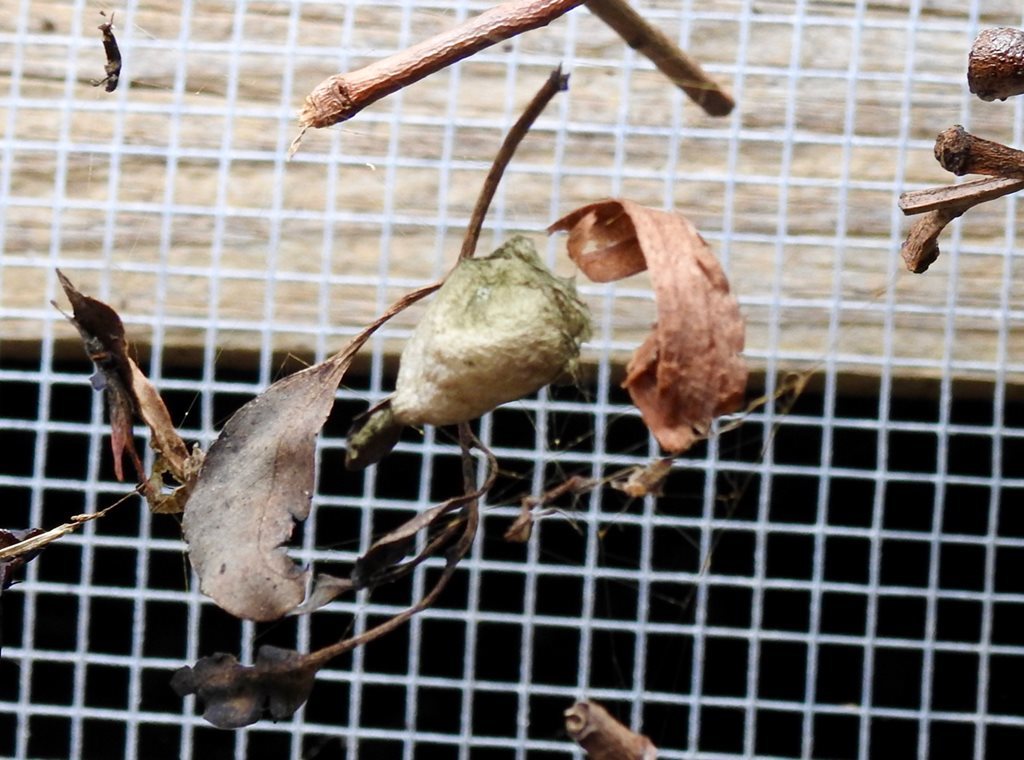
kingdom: Animalia
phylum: Arthropoda
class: Arachnida
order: Araneae
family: Araneidae
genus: Argiope
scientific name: Argiope keyserlingi
